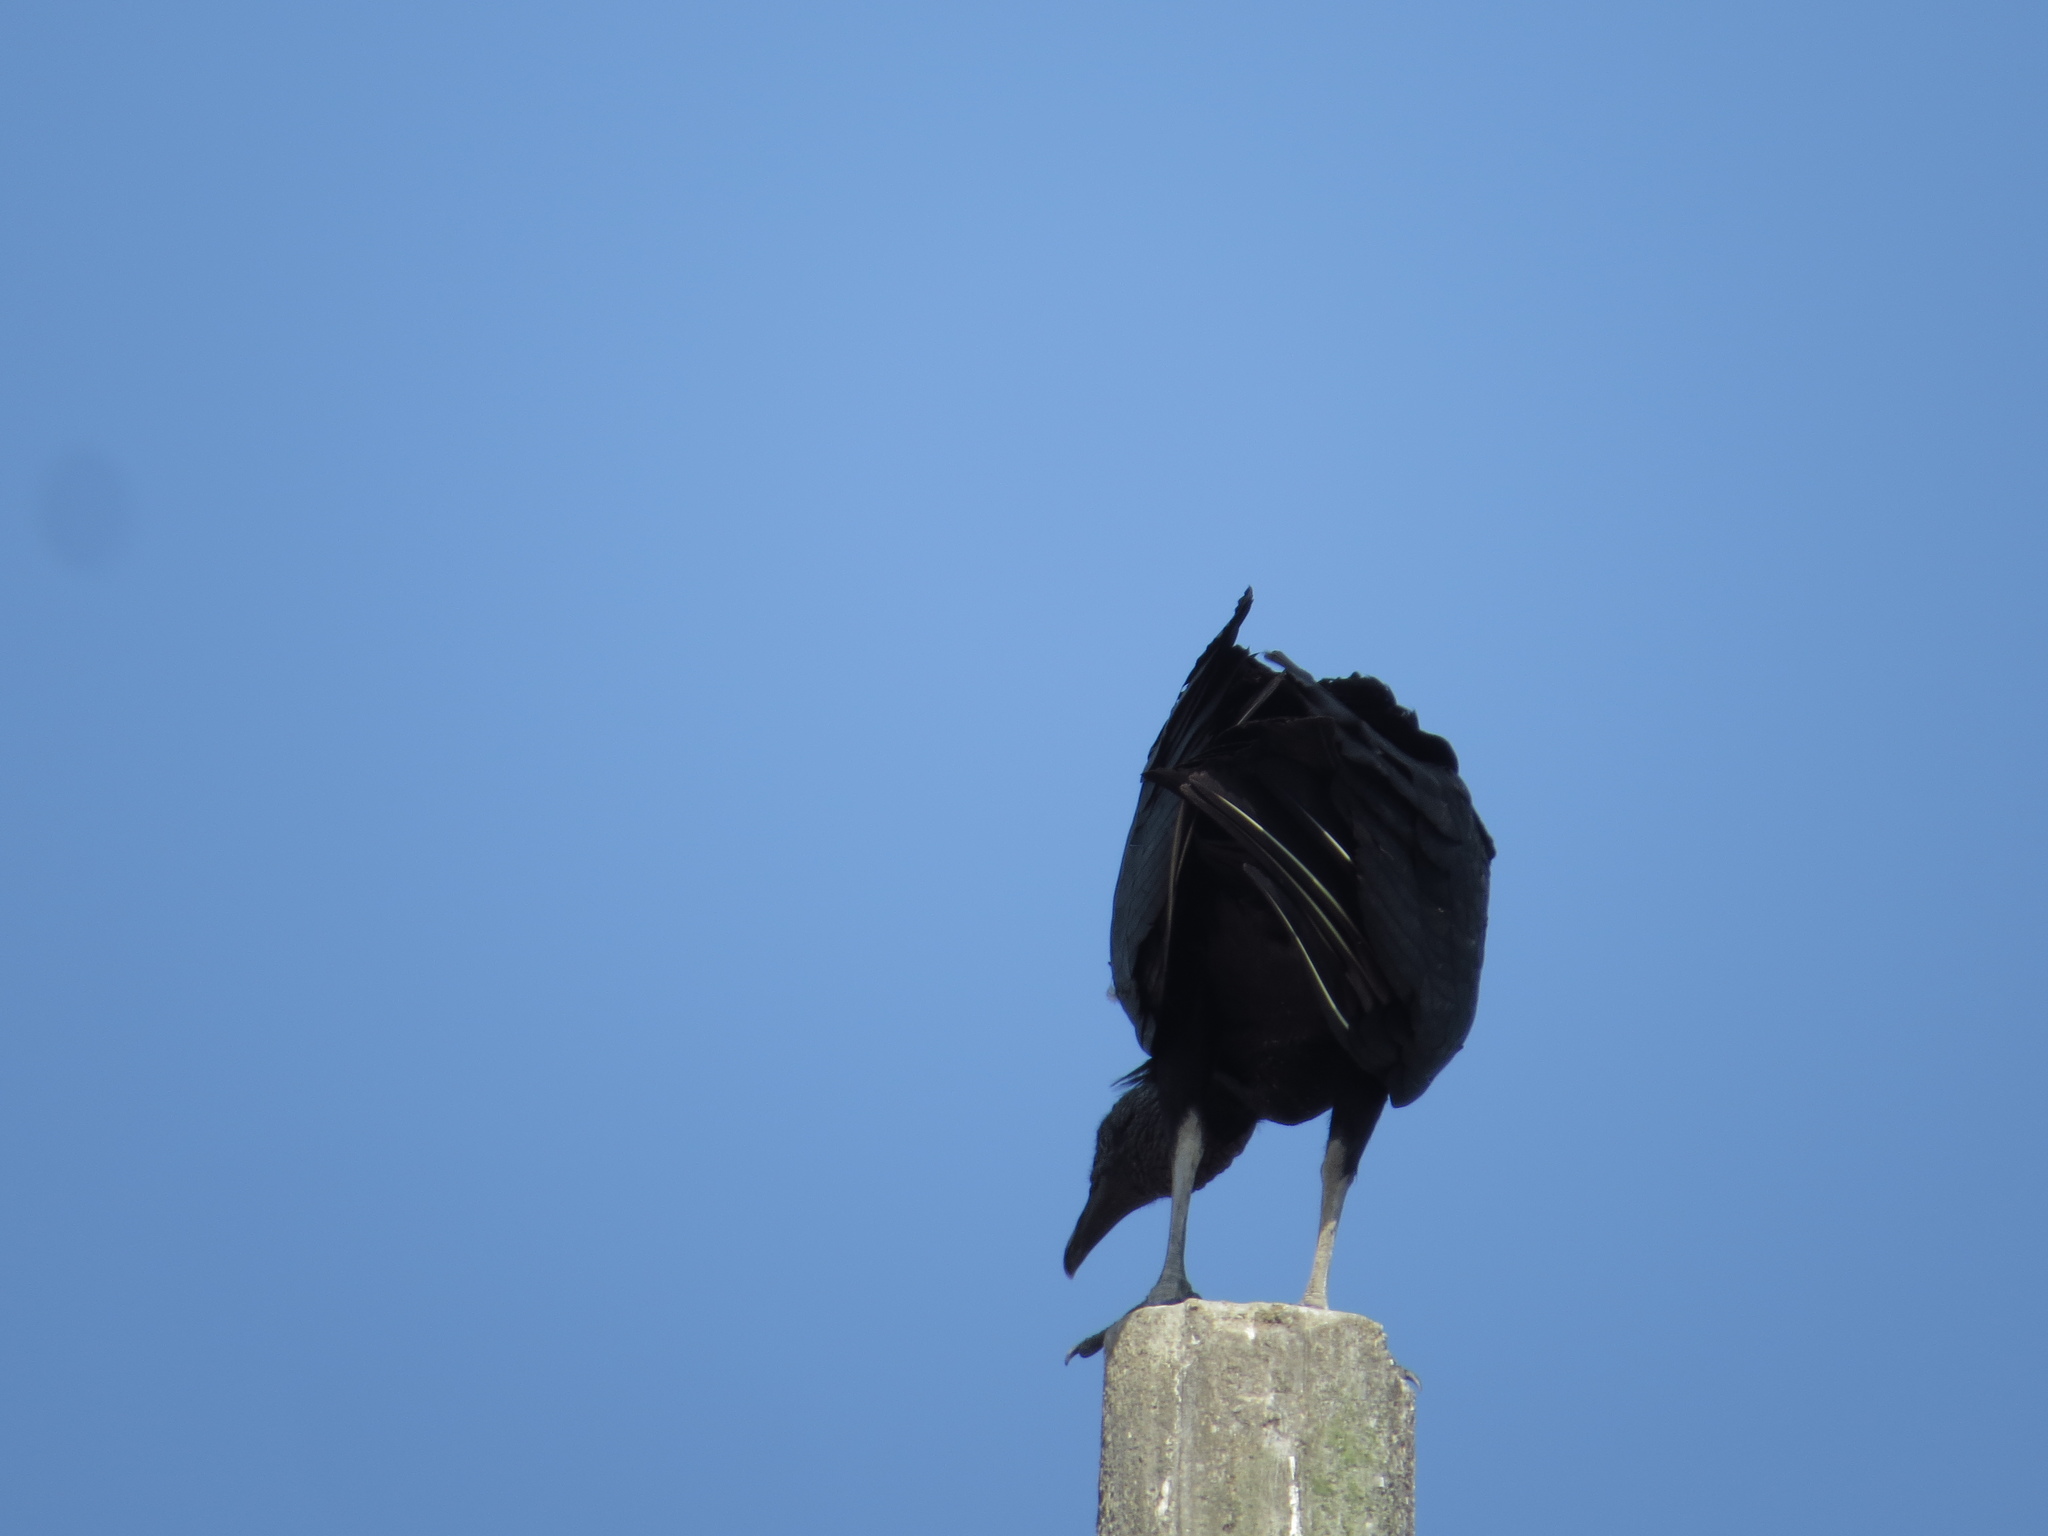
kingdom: Animalia
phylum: Chordata
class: Aves
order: Accipitriformes
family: Cathartidae
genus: Coragyps
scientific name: Coragyps atratus
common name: Black vulture
